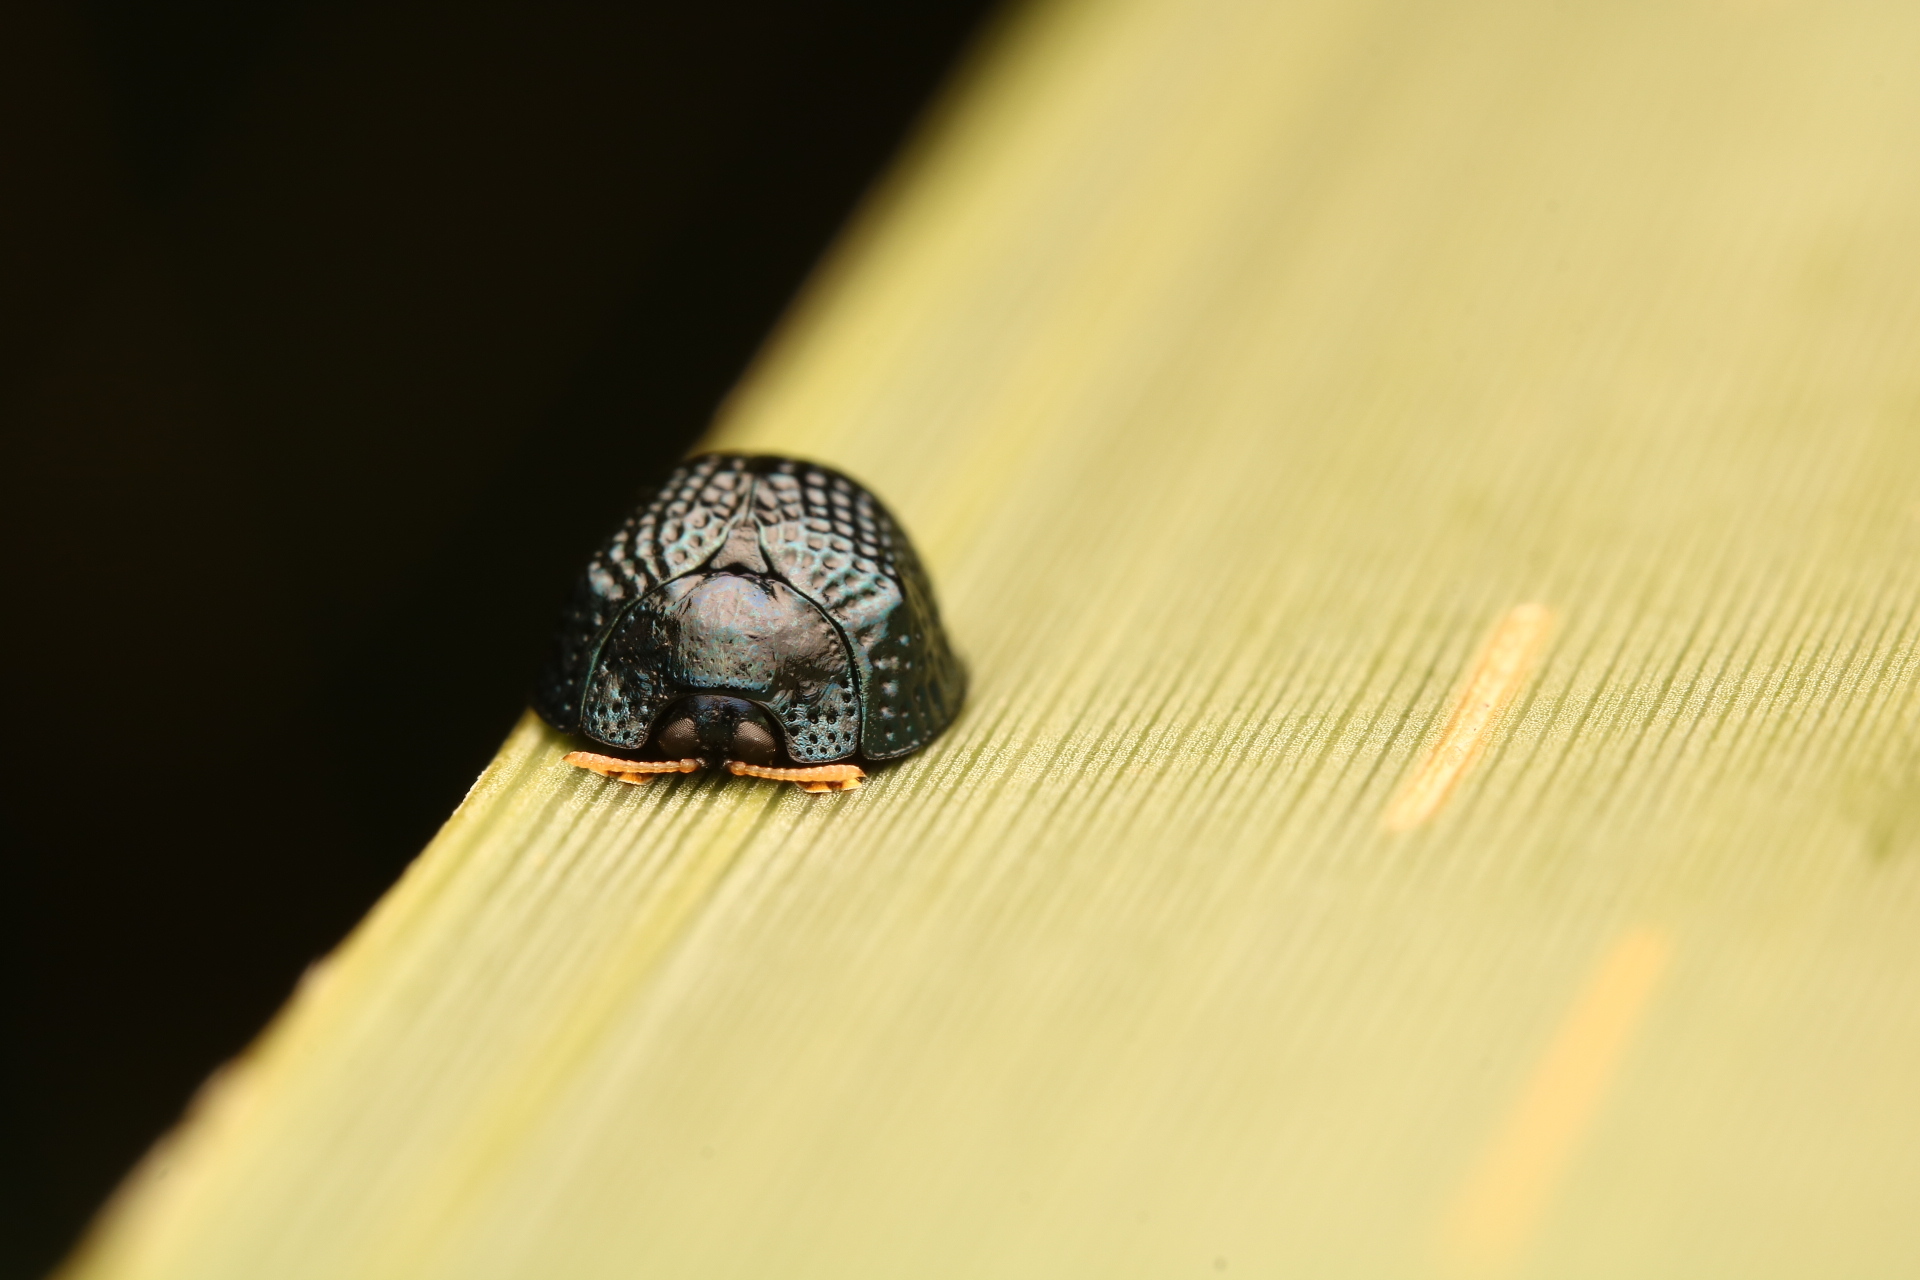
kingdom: Animalia
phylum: Arthropoda
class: Insecta
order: Coleoptera
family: Chrysomelidae
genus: Hemisphaerota
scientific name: Hemisphaerota cyanea
